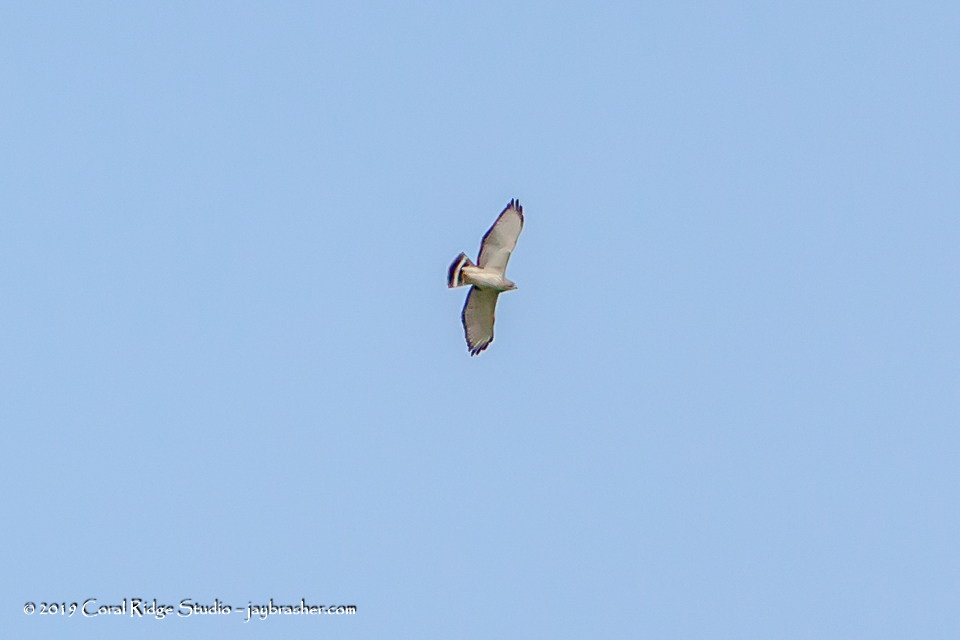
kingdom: Animalia
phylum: Chordata
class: Aves
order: Accipitriformes
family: Accipitridae
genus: Buteo
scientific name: Buteo platypterus
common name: Broad-winged hawk
